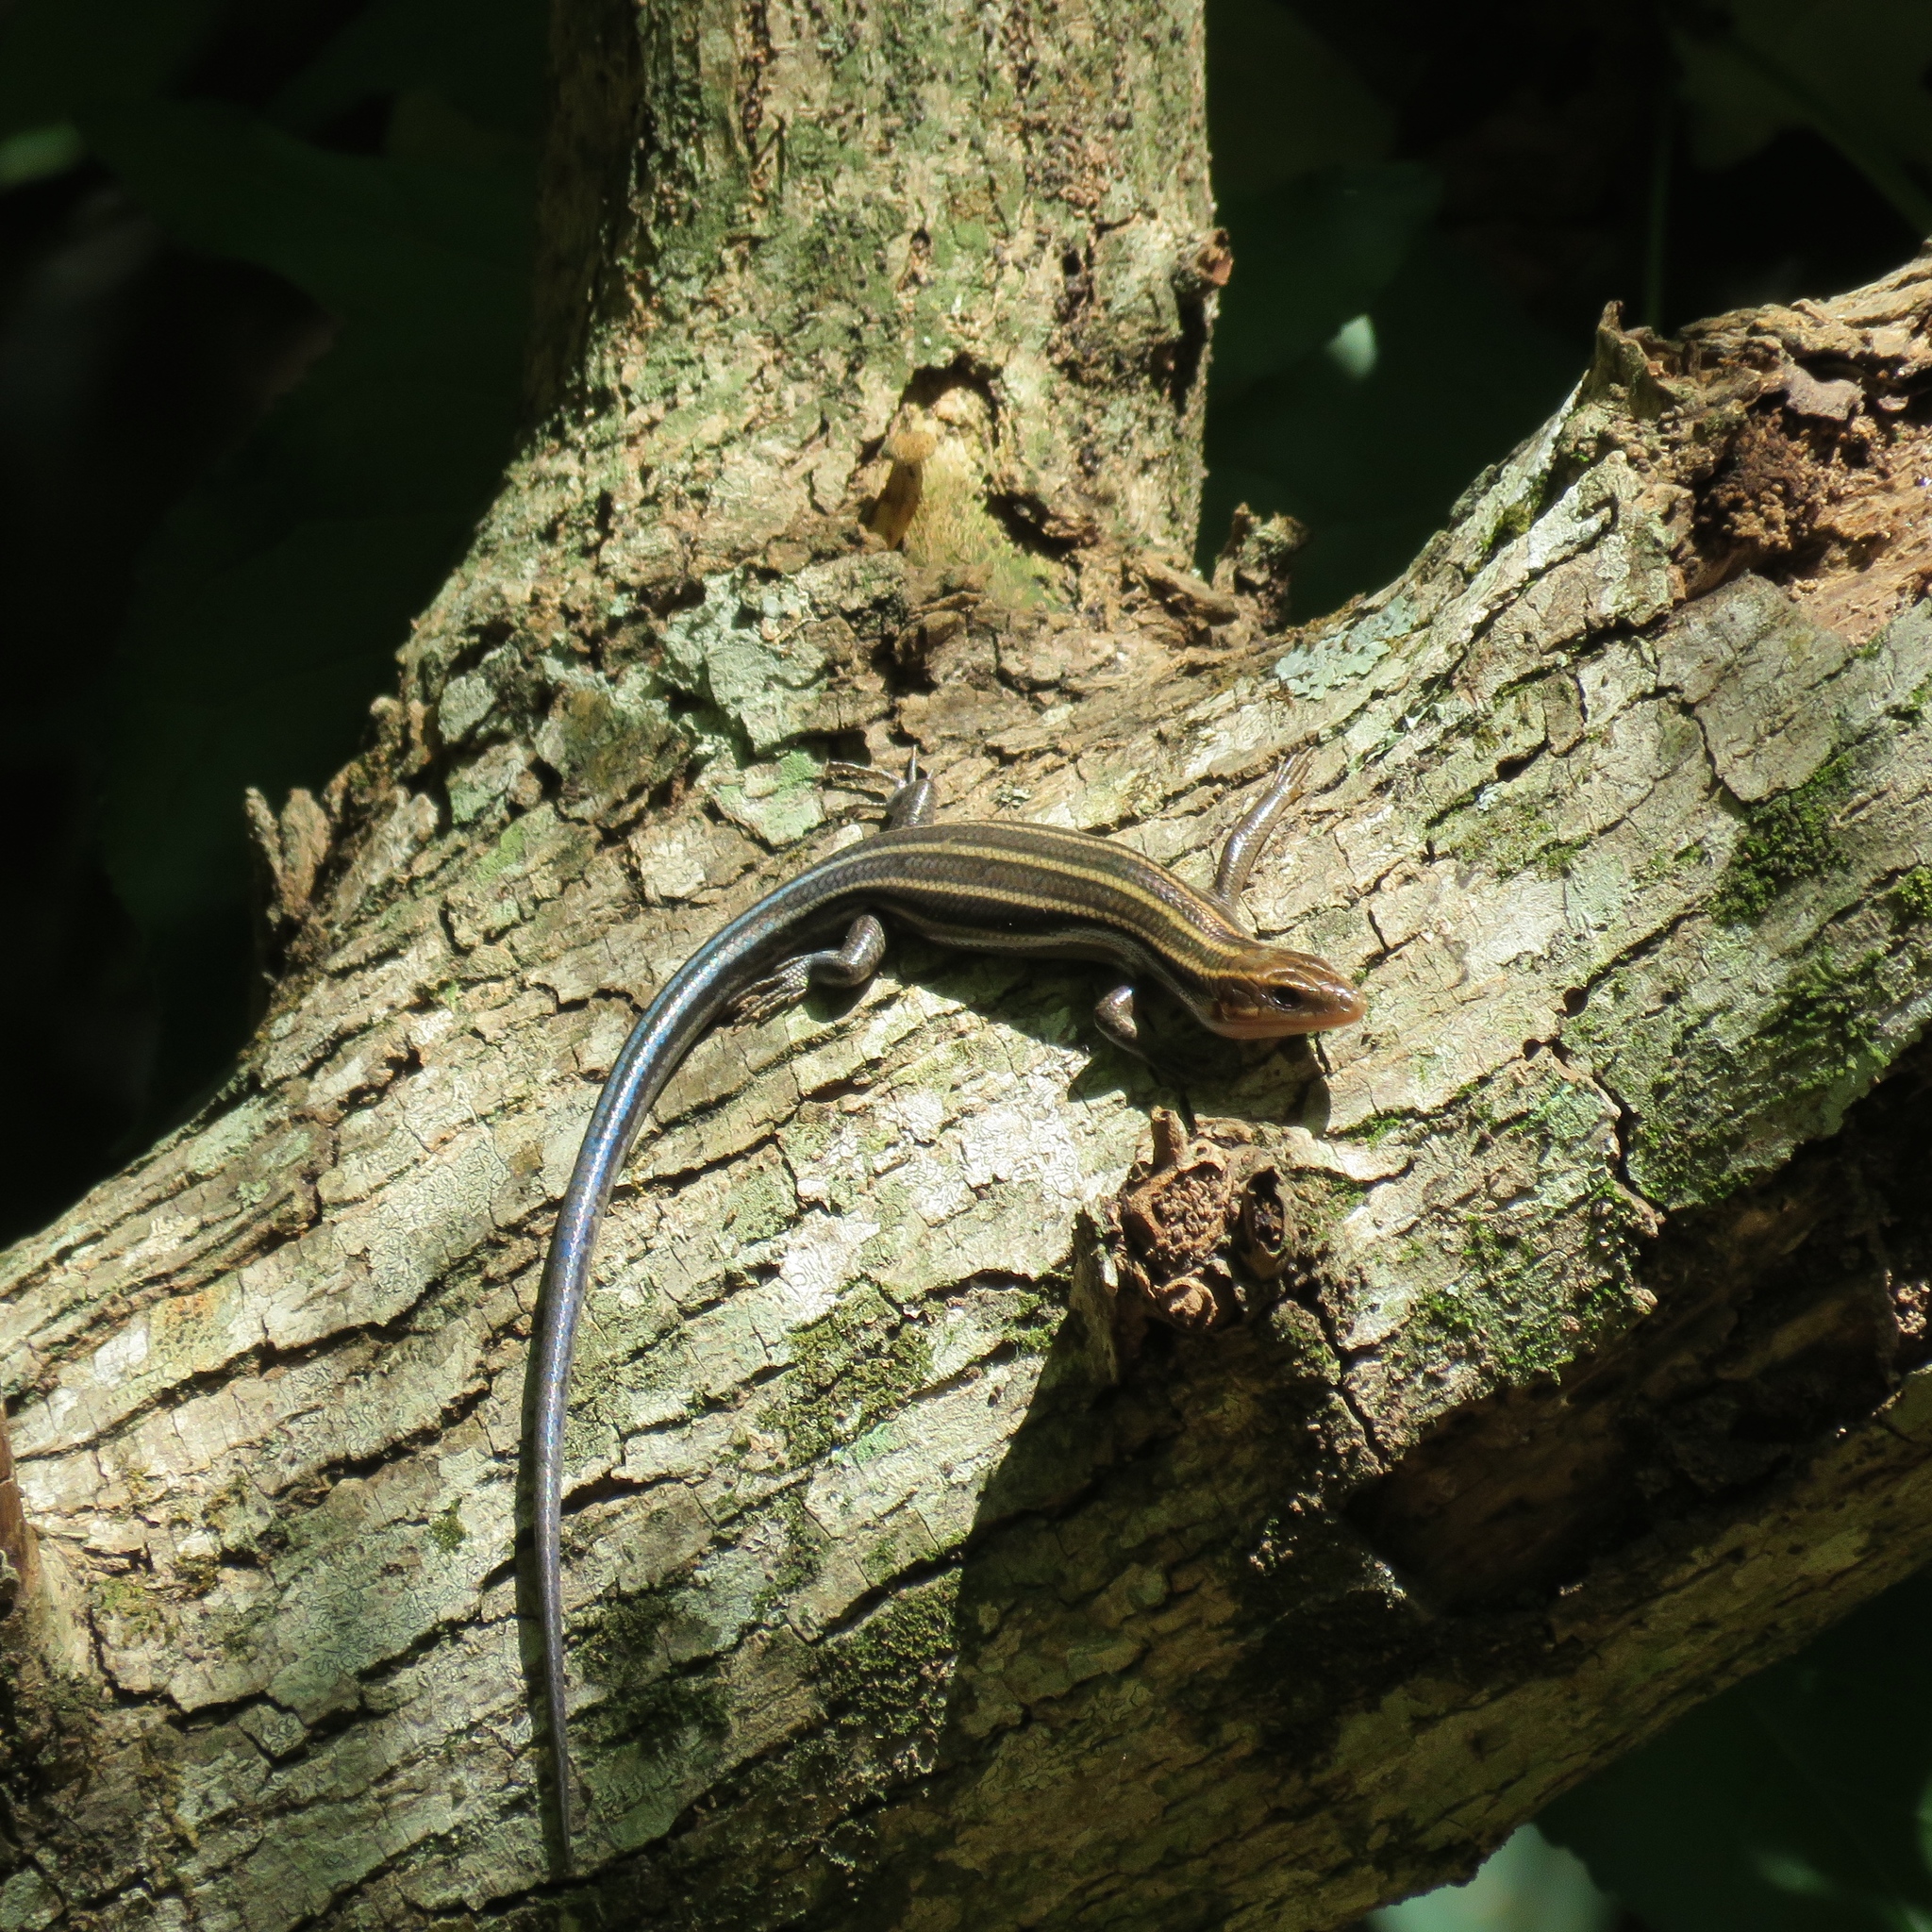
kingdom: Animalia
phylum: Chordata
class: Squamata
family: Scincidae
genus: Plestiodon
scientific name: Plestiodon fasciatus
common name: Five-lined skink
